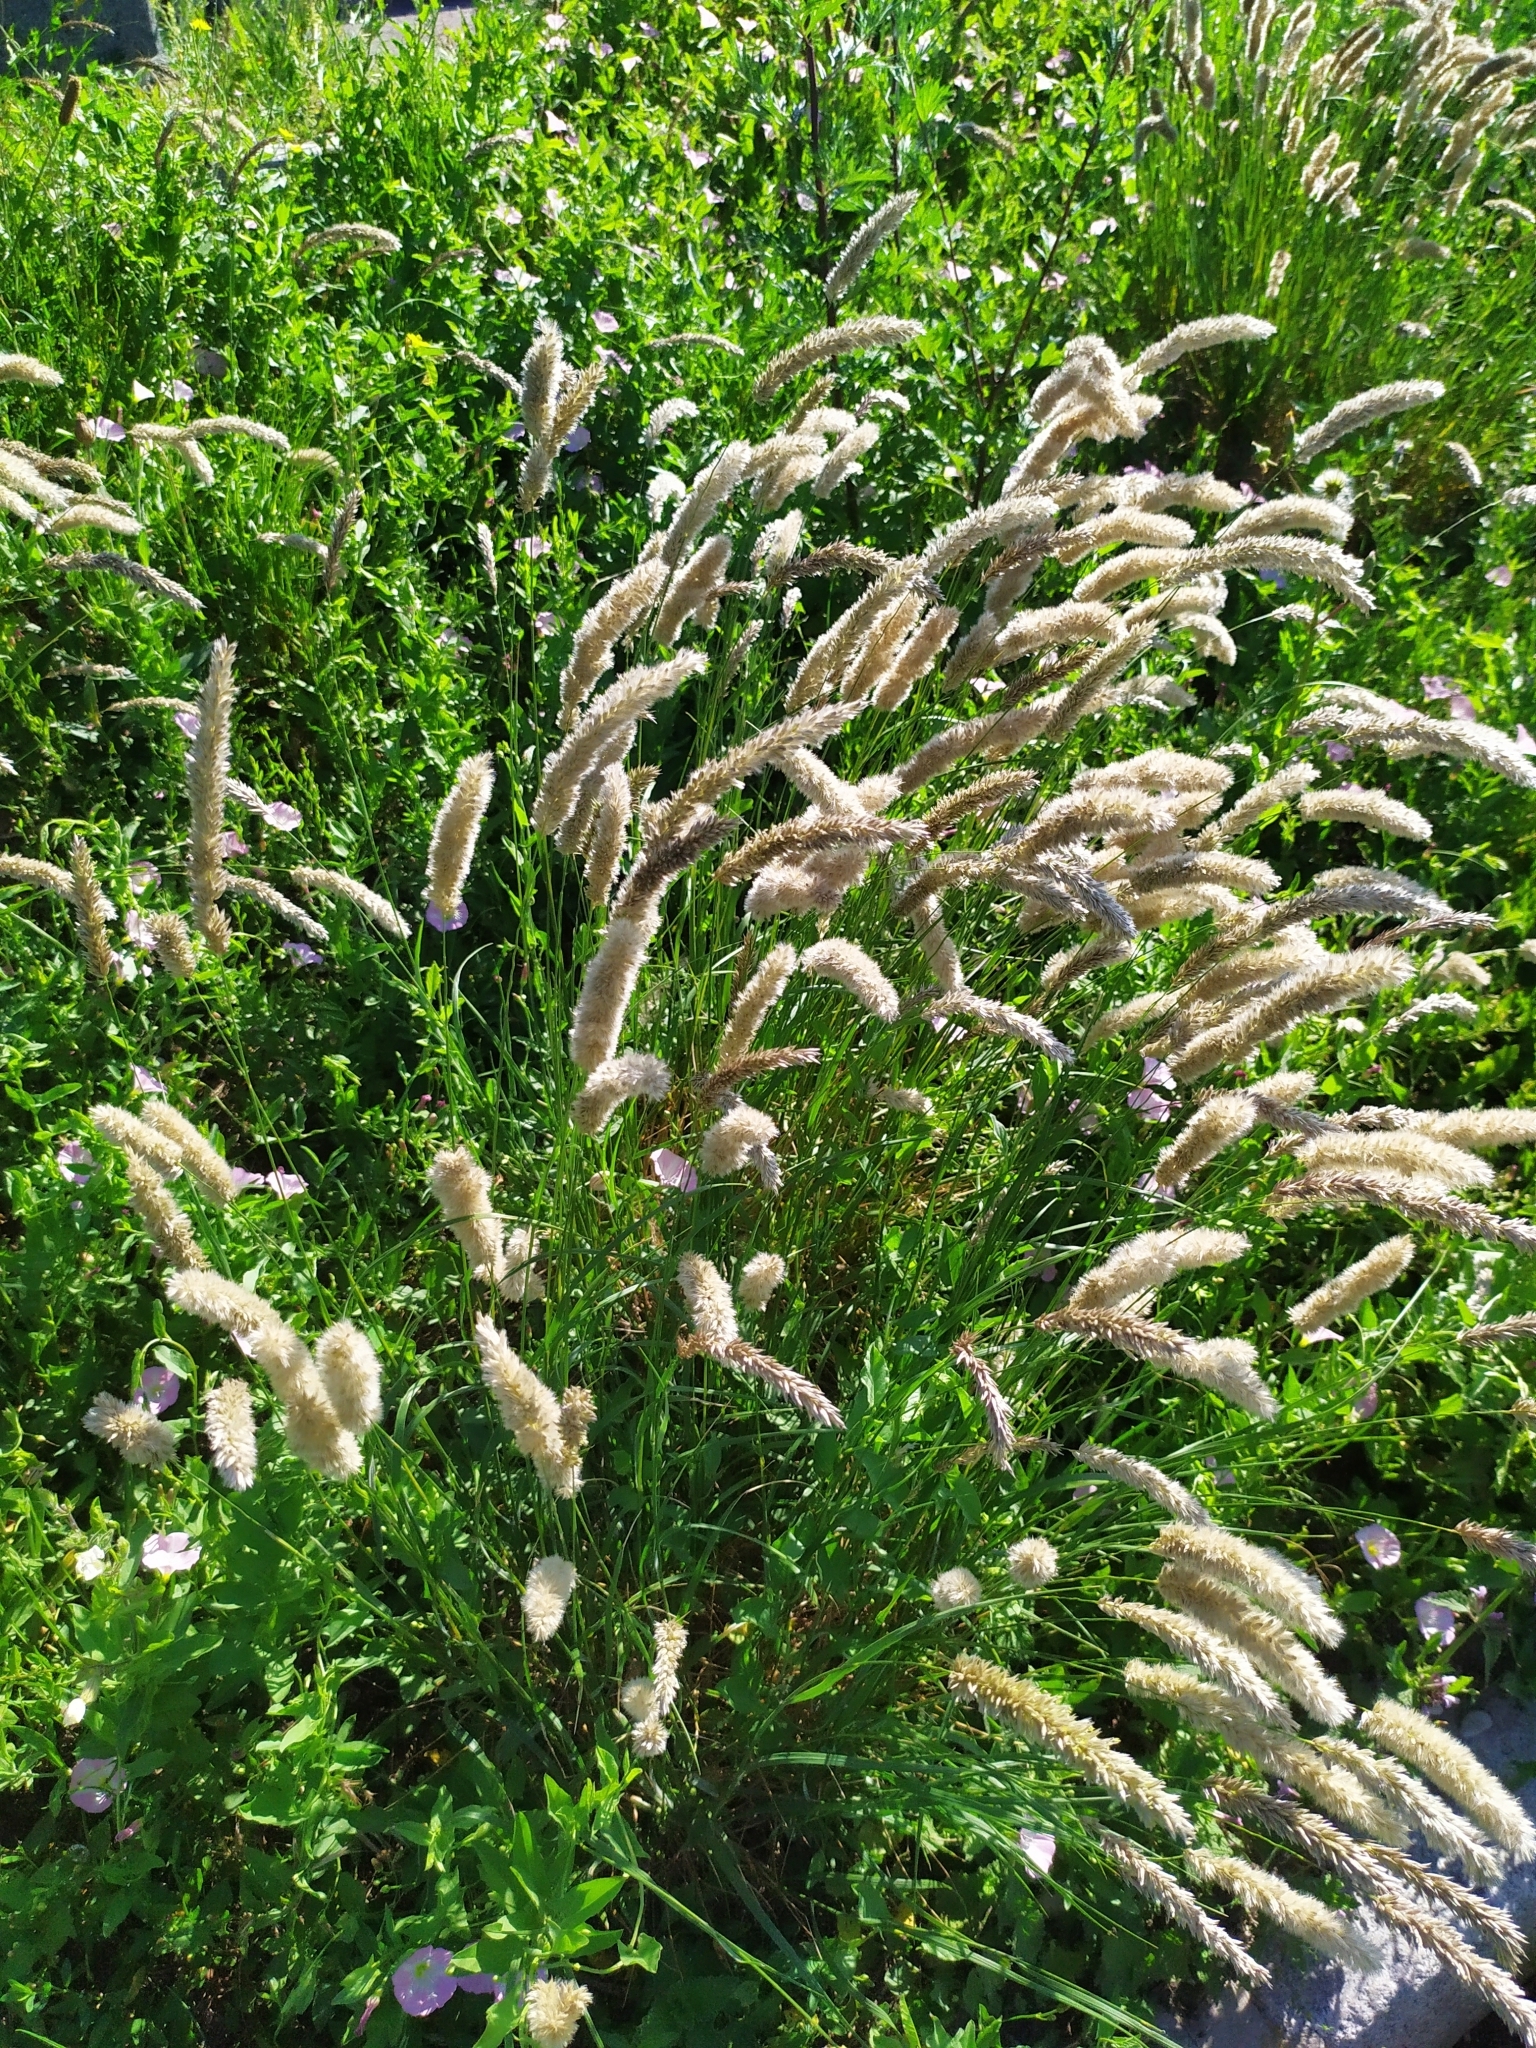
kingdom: Plantae
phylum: Tracheophyta
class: Liliopsida
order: Poales
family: Poaceae
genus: Melica
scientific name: Melica transsilvanica
